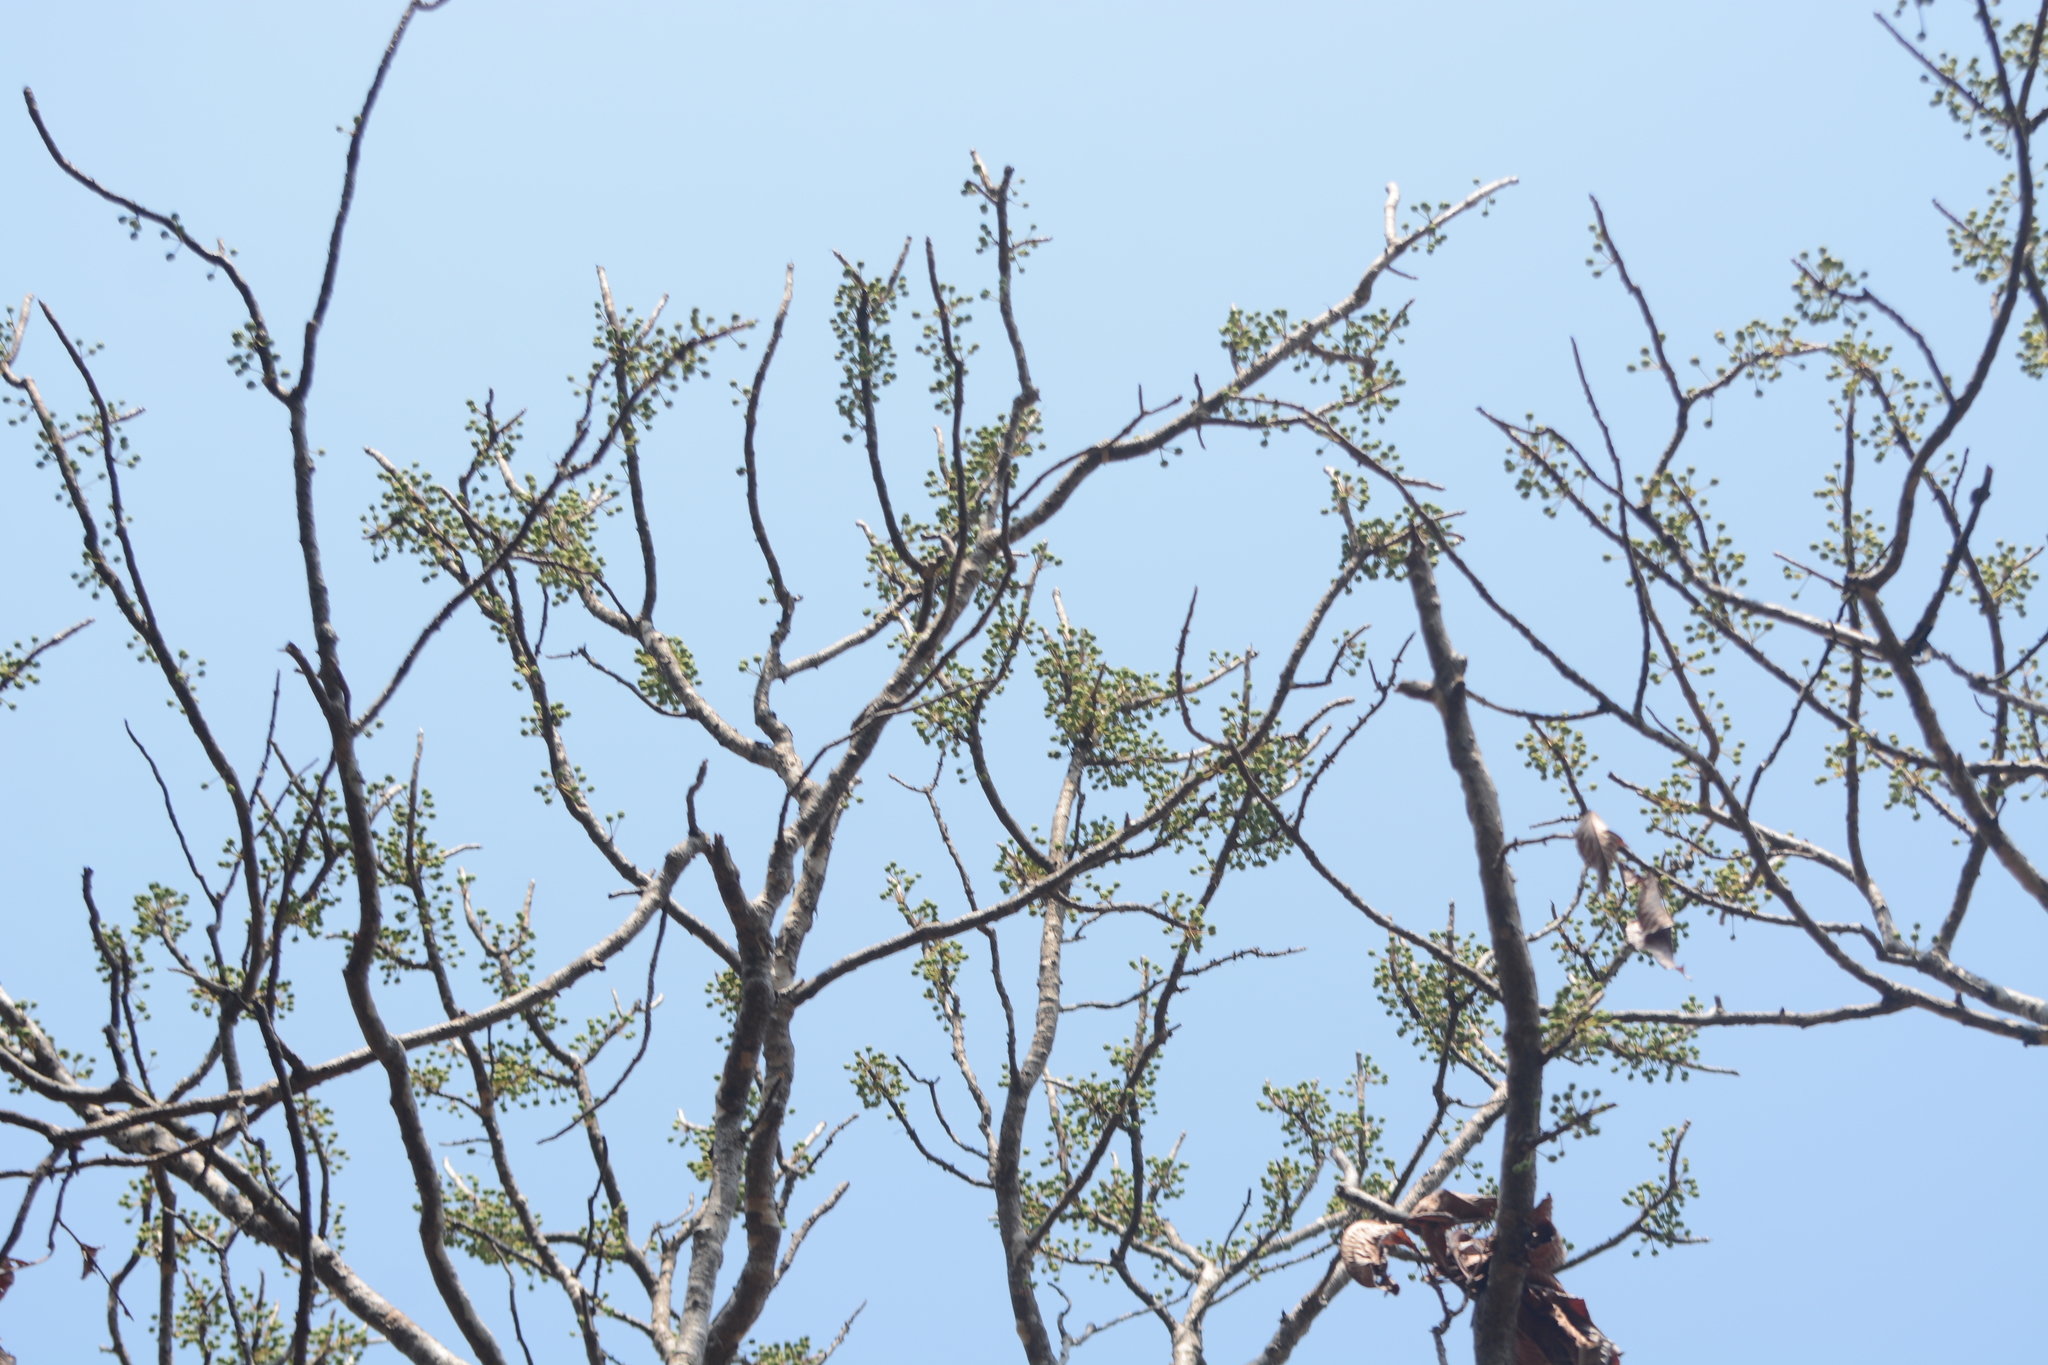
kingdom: Plantae
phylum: Tracheophyta
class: Magnoliopsida
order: Dilleniales
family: Dilleniaceae
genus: Dillenia
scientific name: Dillenia pentagyna
